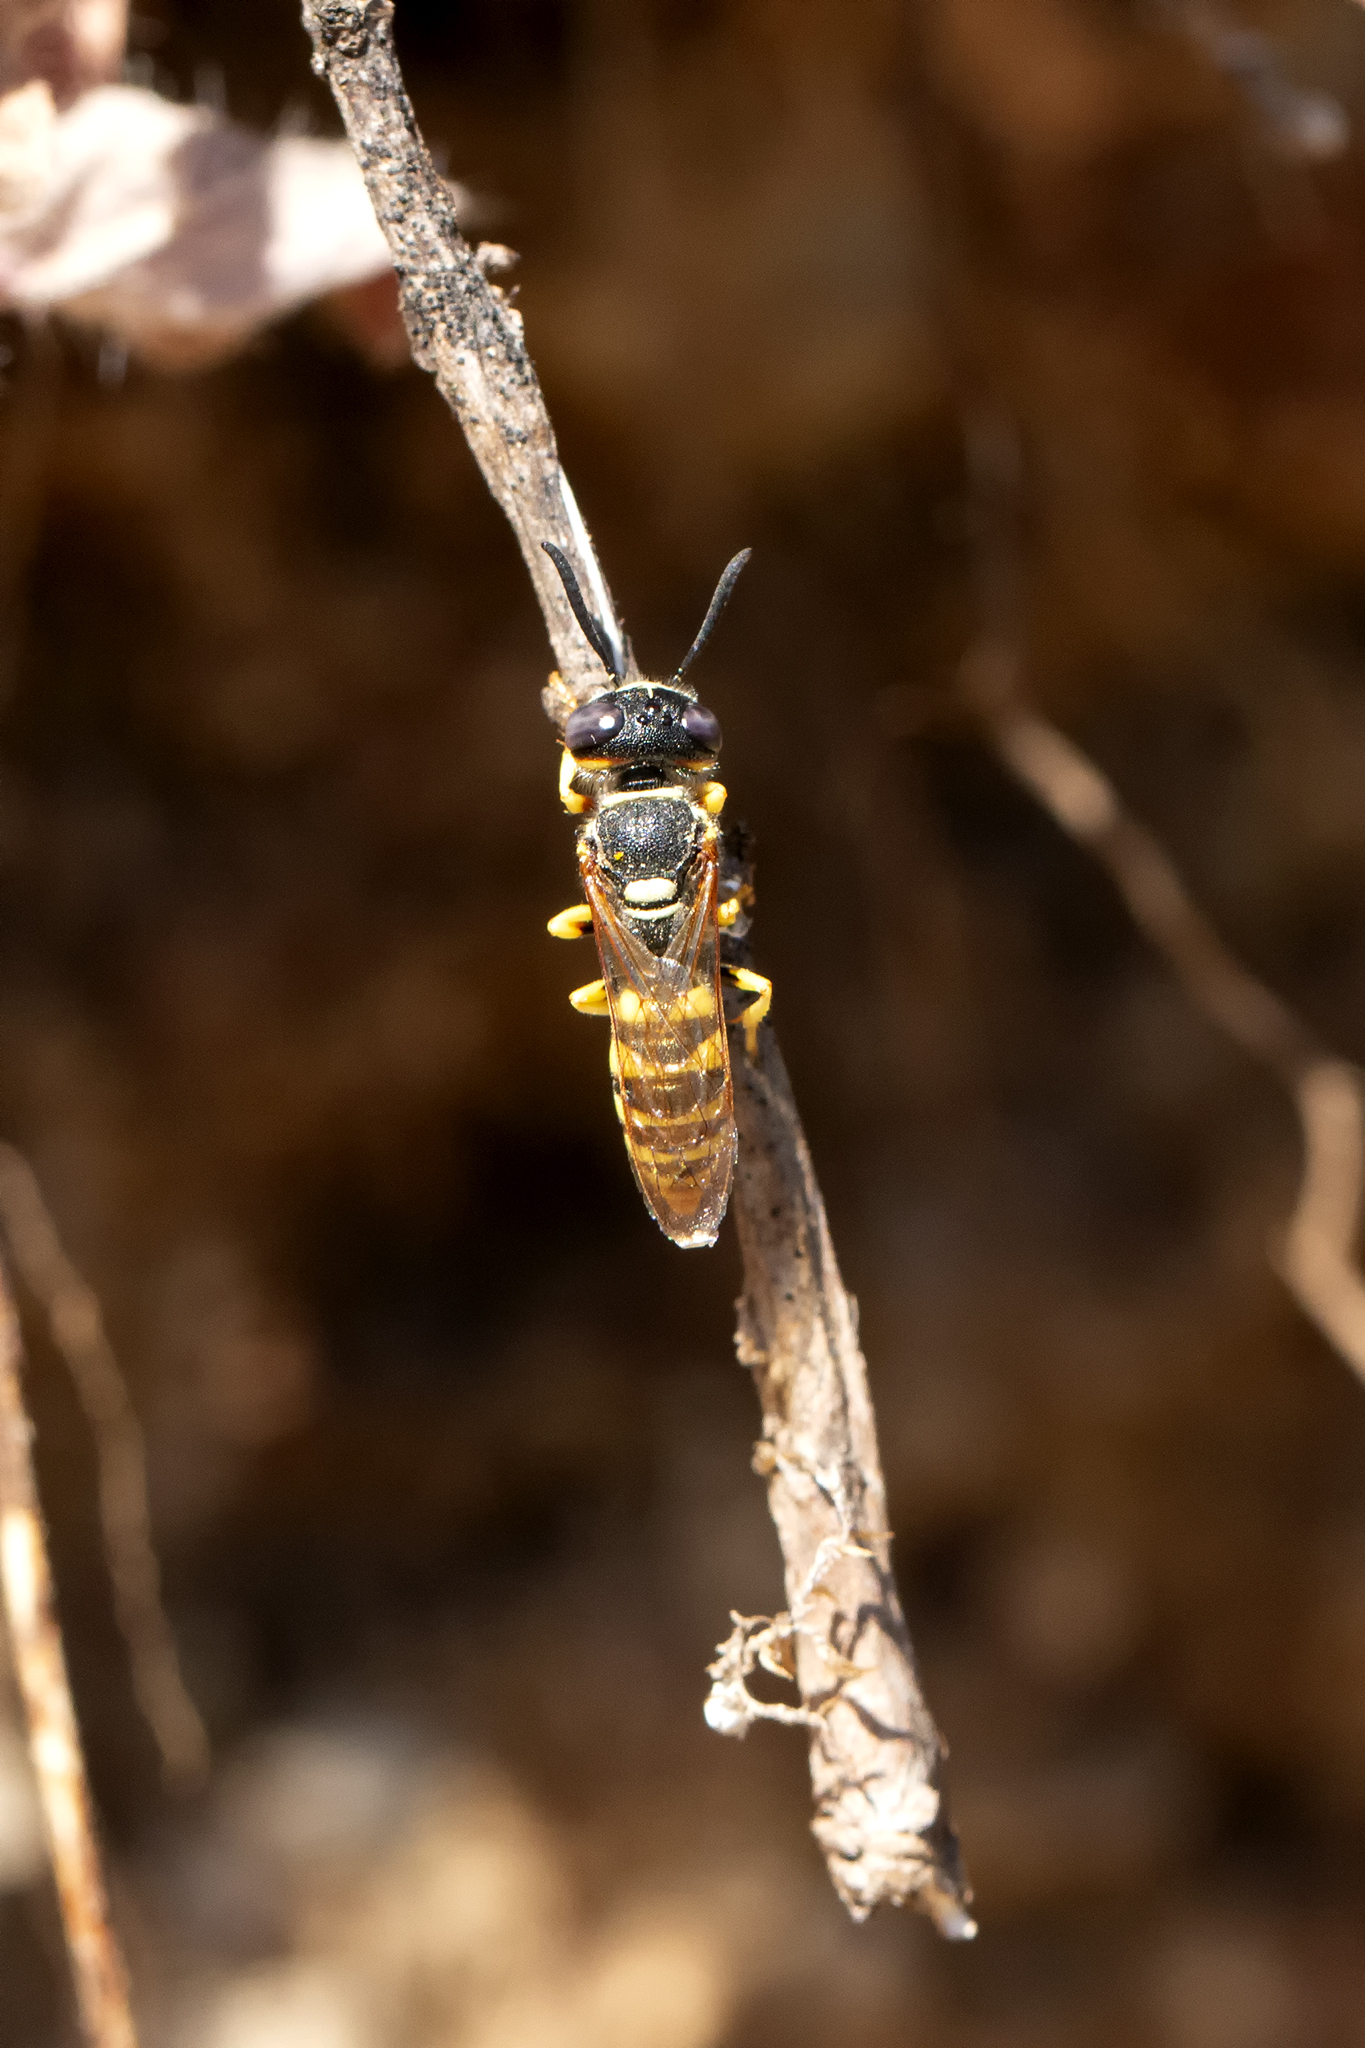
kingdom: Animalia
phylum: Arthropoda
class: Insecta
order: Hymenoptera
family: Crabronidae
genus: Philanthus
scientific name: Philanthus triangulum
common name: Bee wolf
